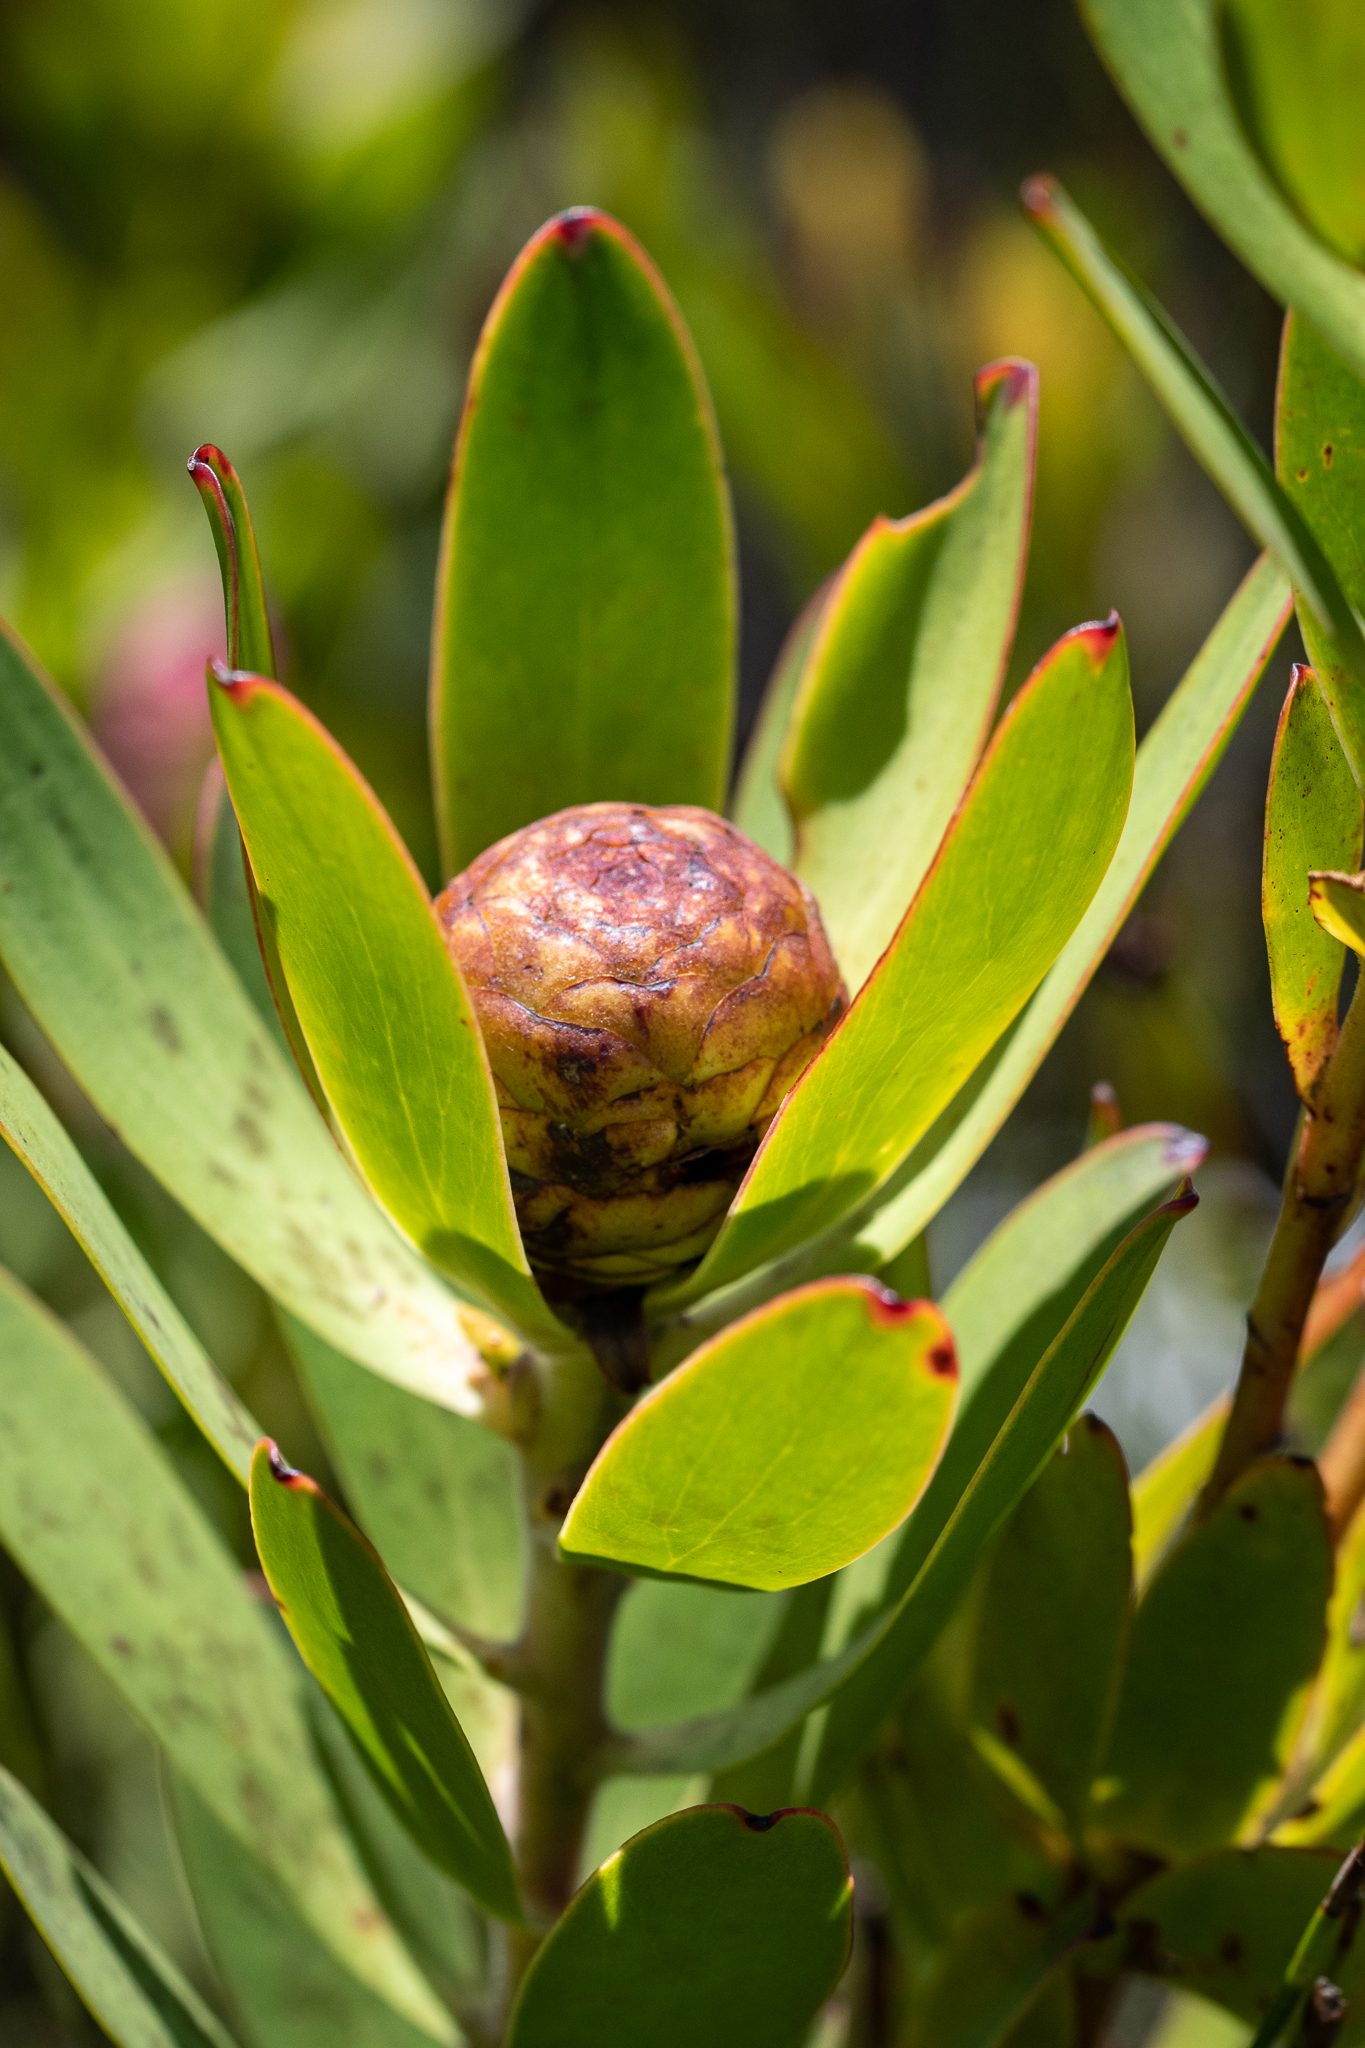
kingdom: Plantae
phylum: Tracheophyta
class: Magnoliopsida
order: Proteales
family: Proteaceae
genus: Leucadendron
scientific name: Leucadendron gandogeri
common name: Broad-leaf conebush
